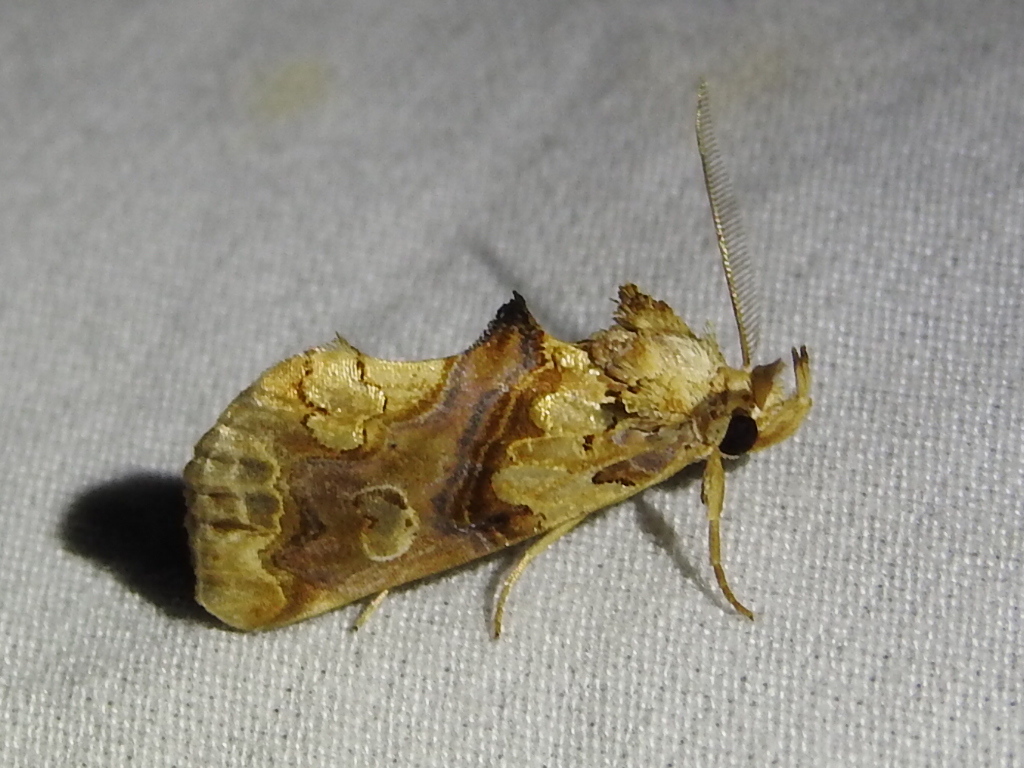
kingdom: Animalia
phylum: Arthropoda
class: Insecta
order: Lepidoptera
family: Erebidae
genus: Plusiodonta
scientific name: Plusiodonta compressipalpis
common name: Moonseed moth
